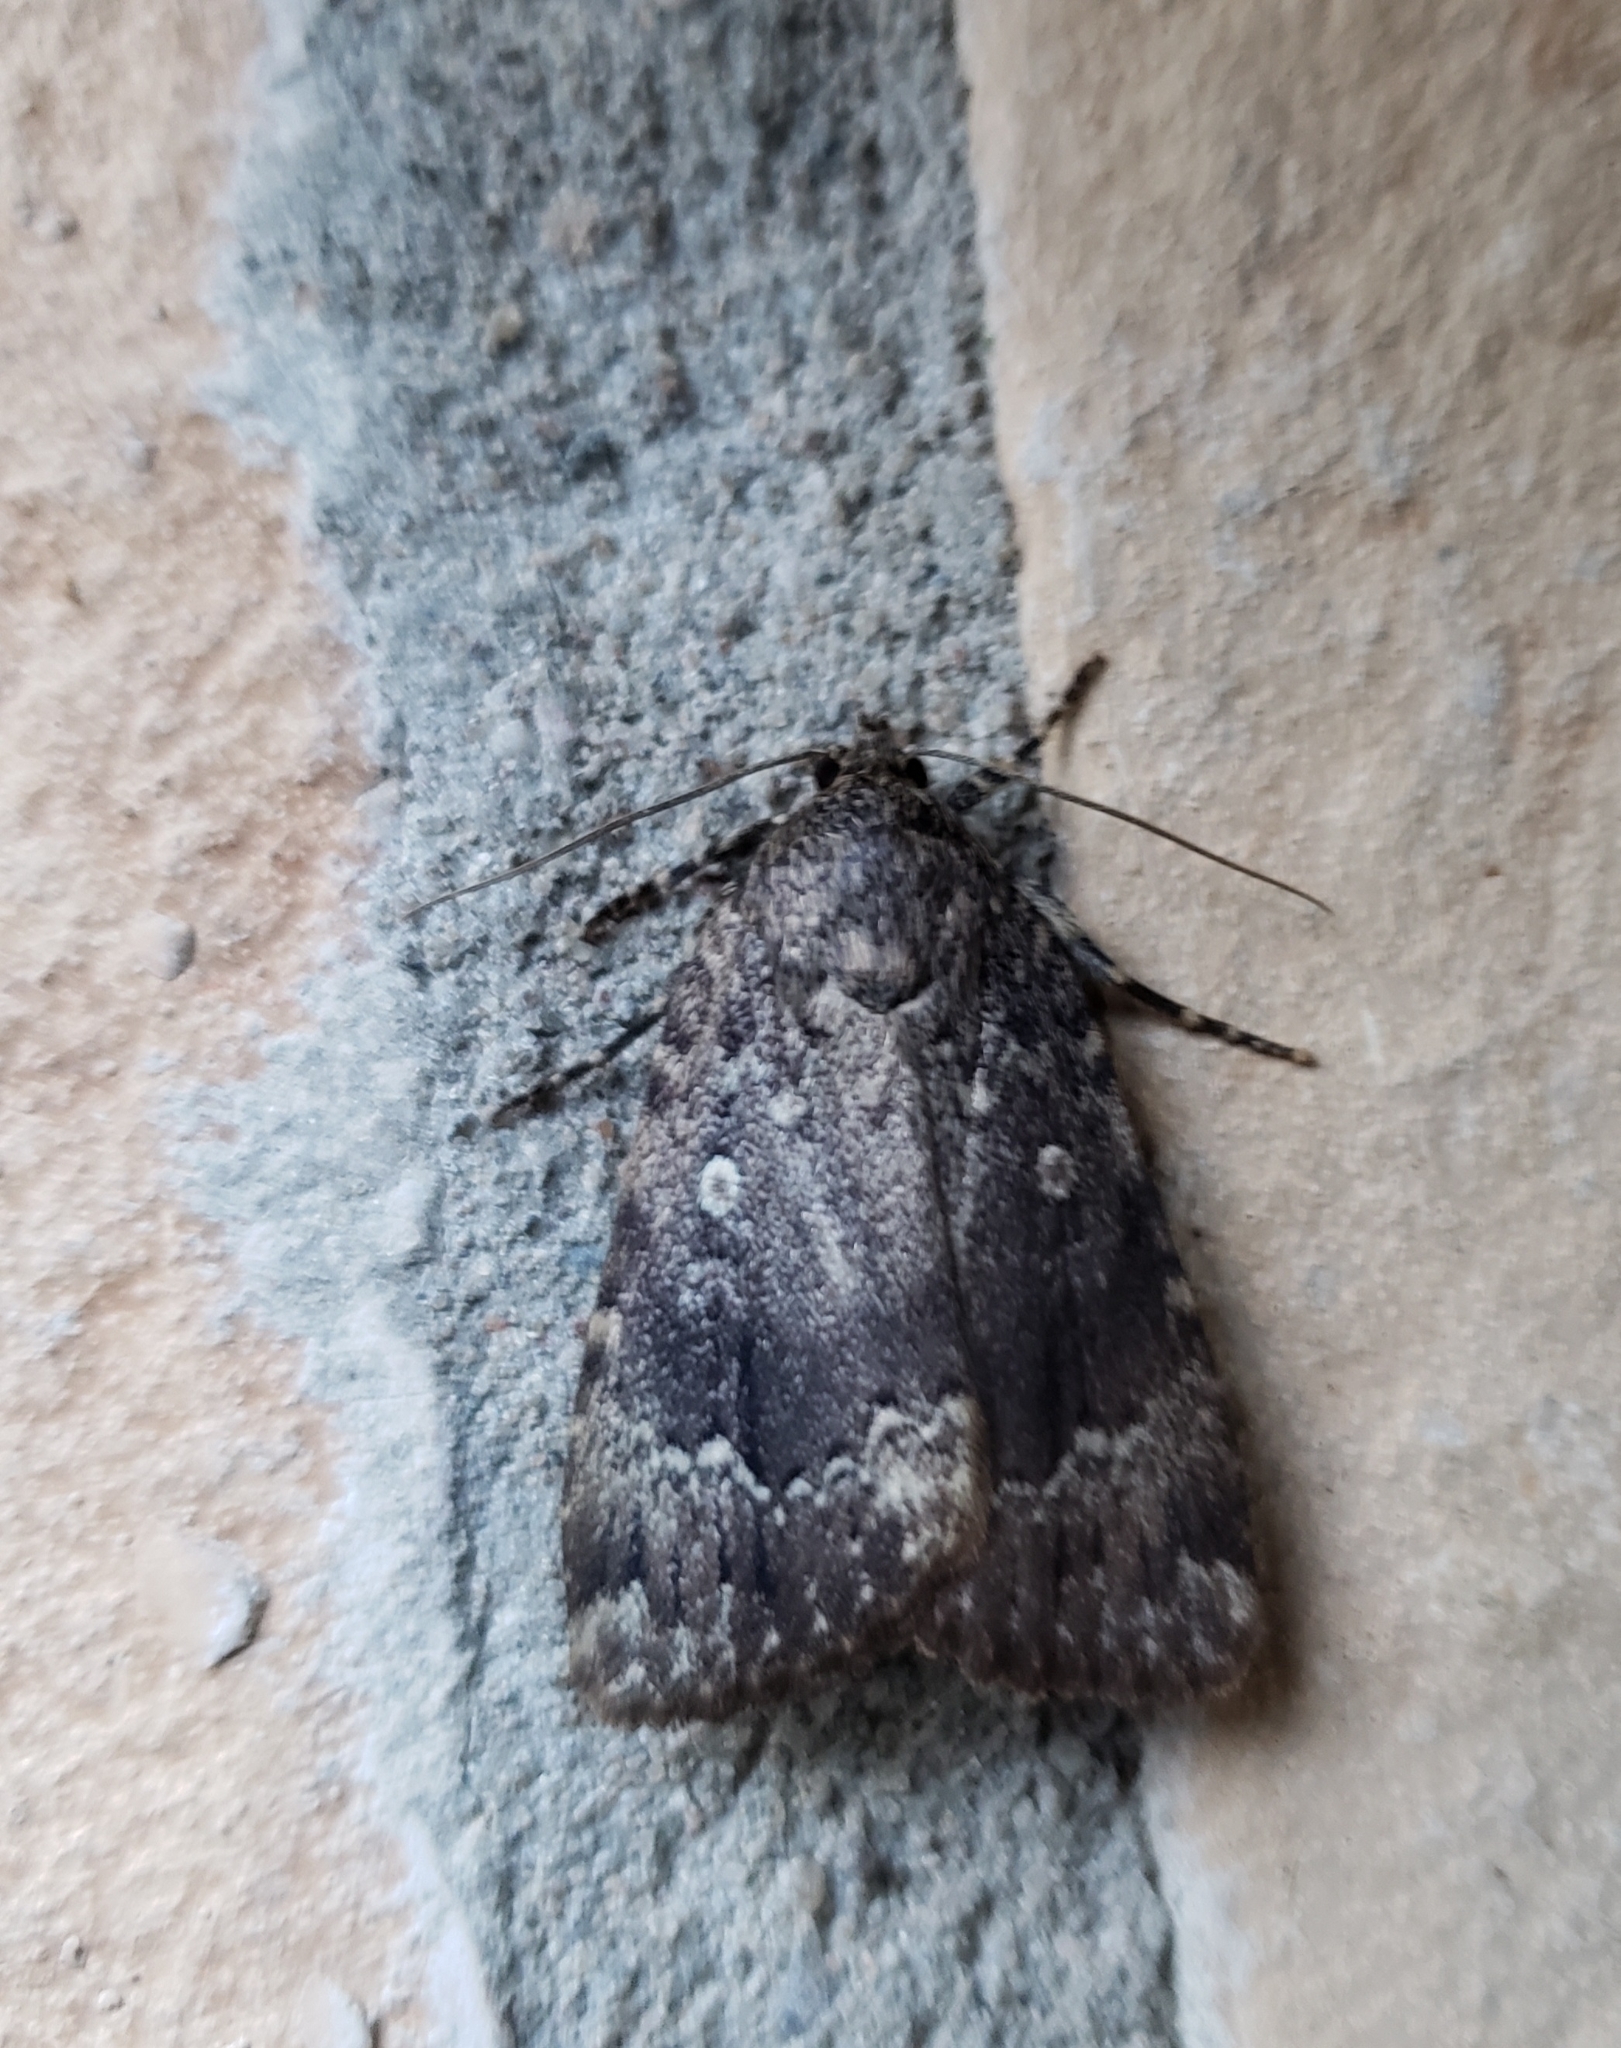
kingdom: Animalia
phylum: Arthropoda
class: Insecta
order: Lepidoptera
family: Noctuidae
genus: Amphipyra
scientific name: Amphipyra pyramidoides
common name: American copper underwing
